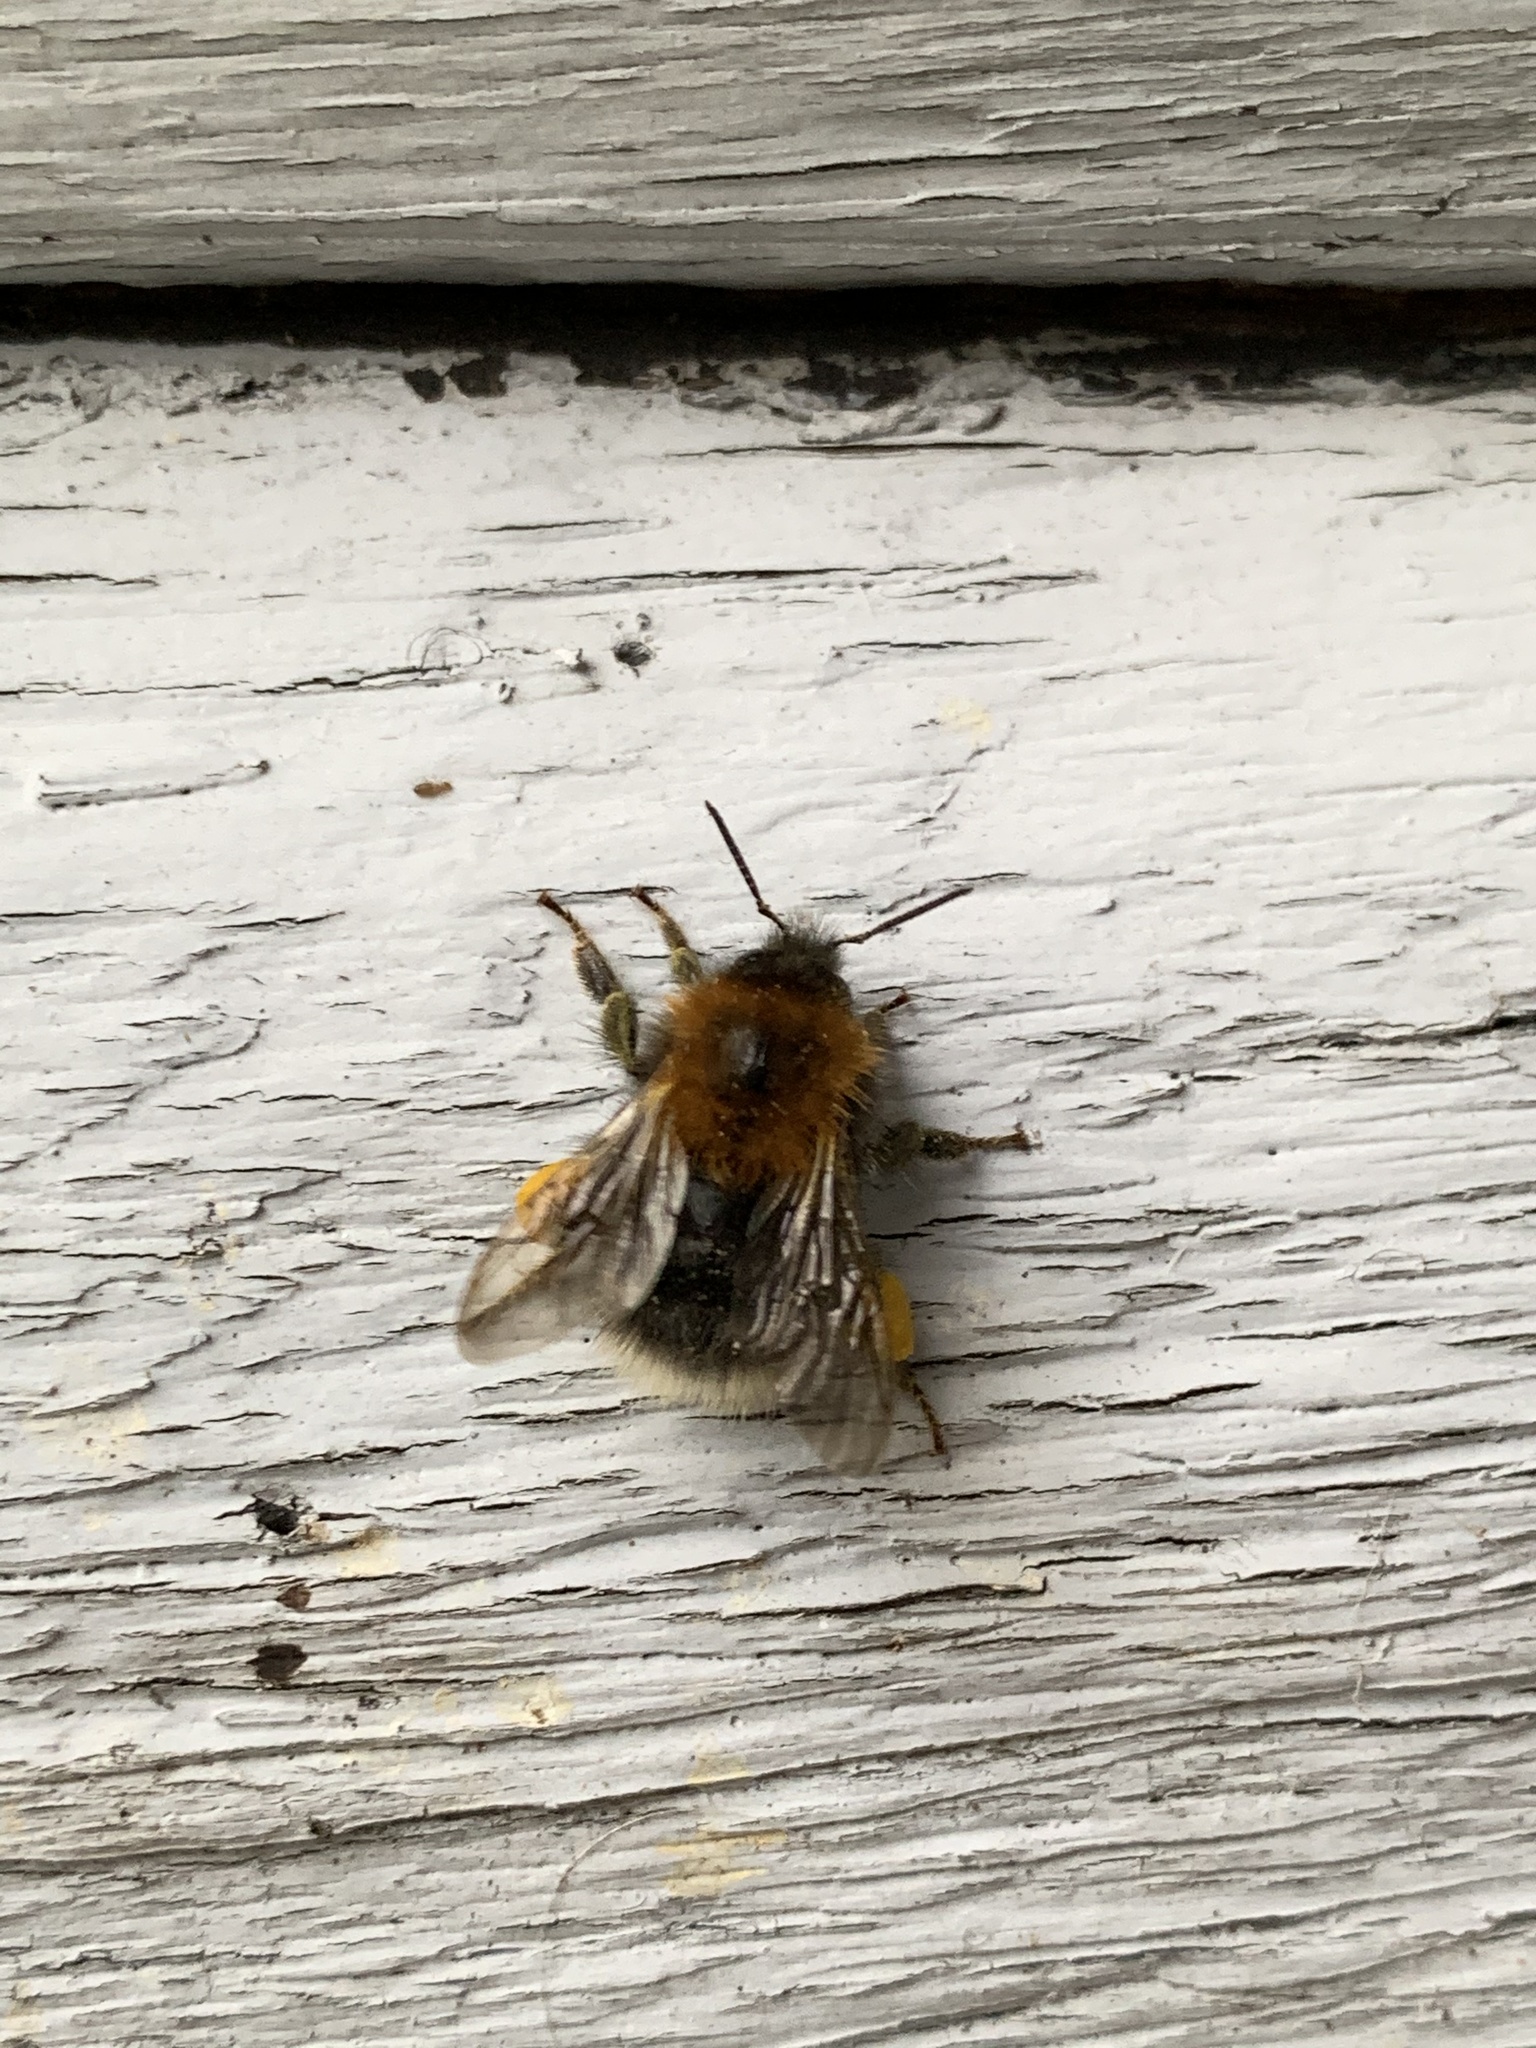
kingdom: Animalia
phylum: Arthropoda
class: Insecta
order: Hymenoptera
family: Apidae
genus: Bombus
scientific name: Bombus hypnorum
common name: New garden bumblebee
